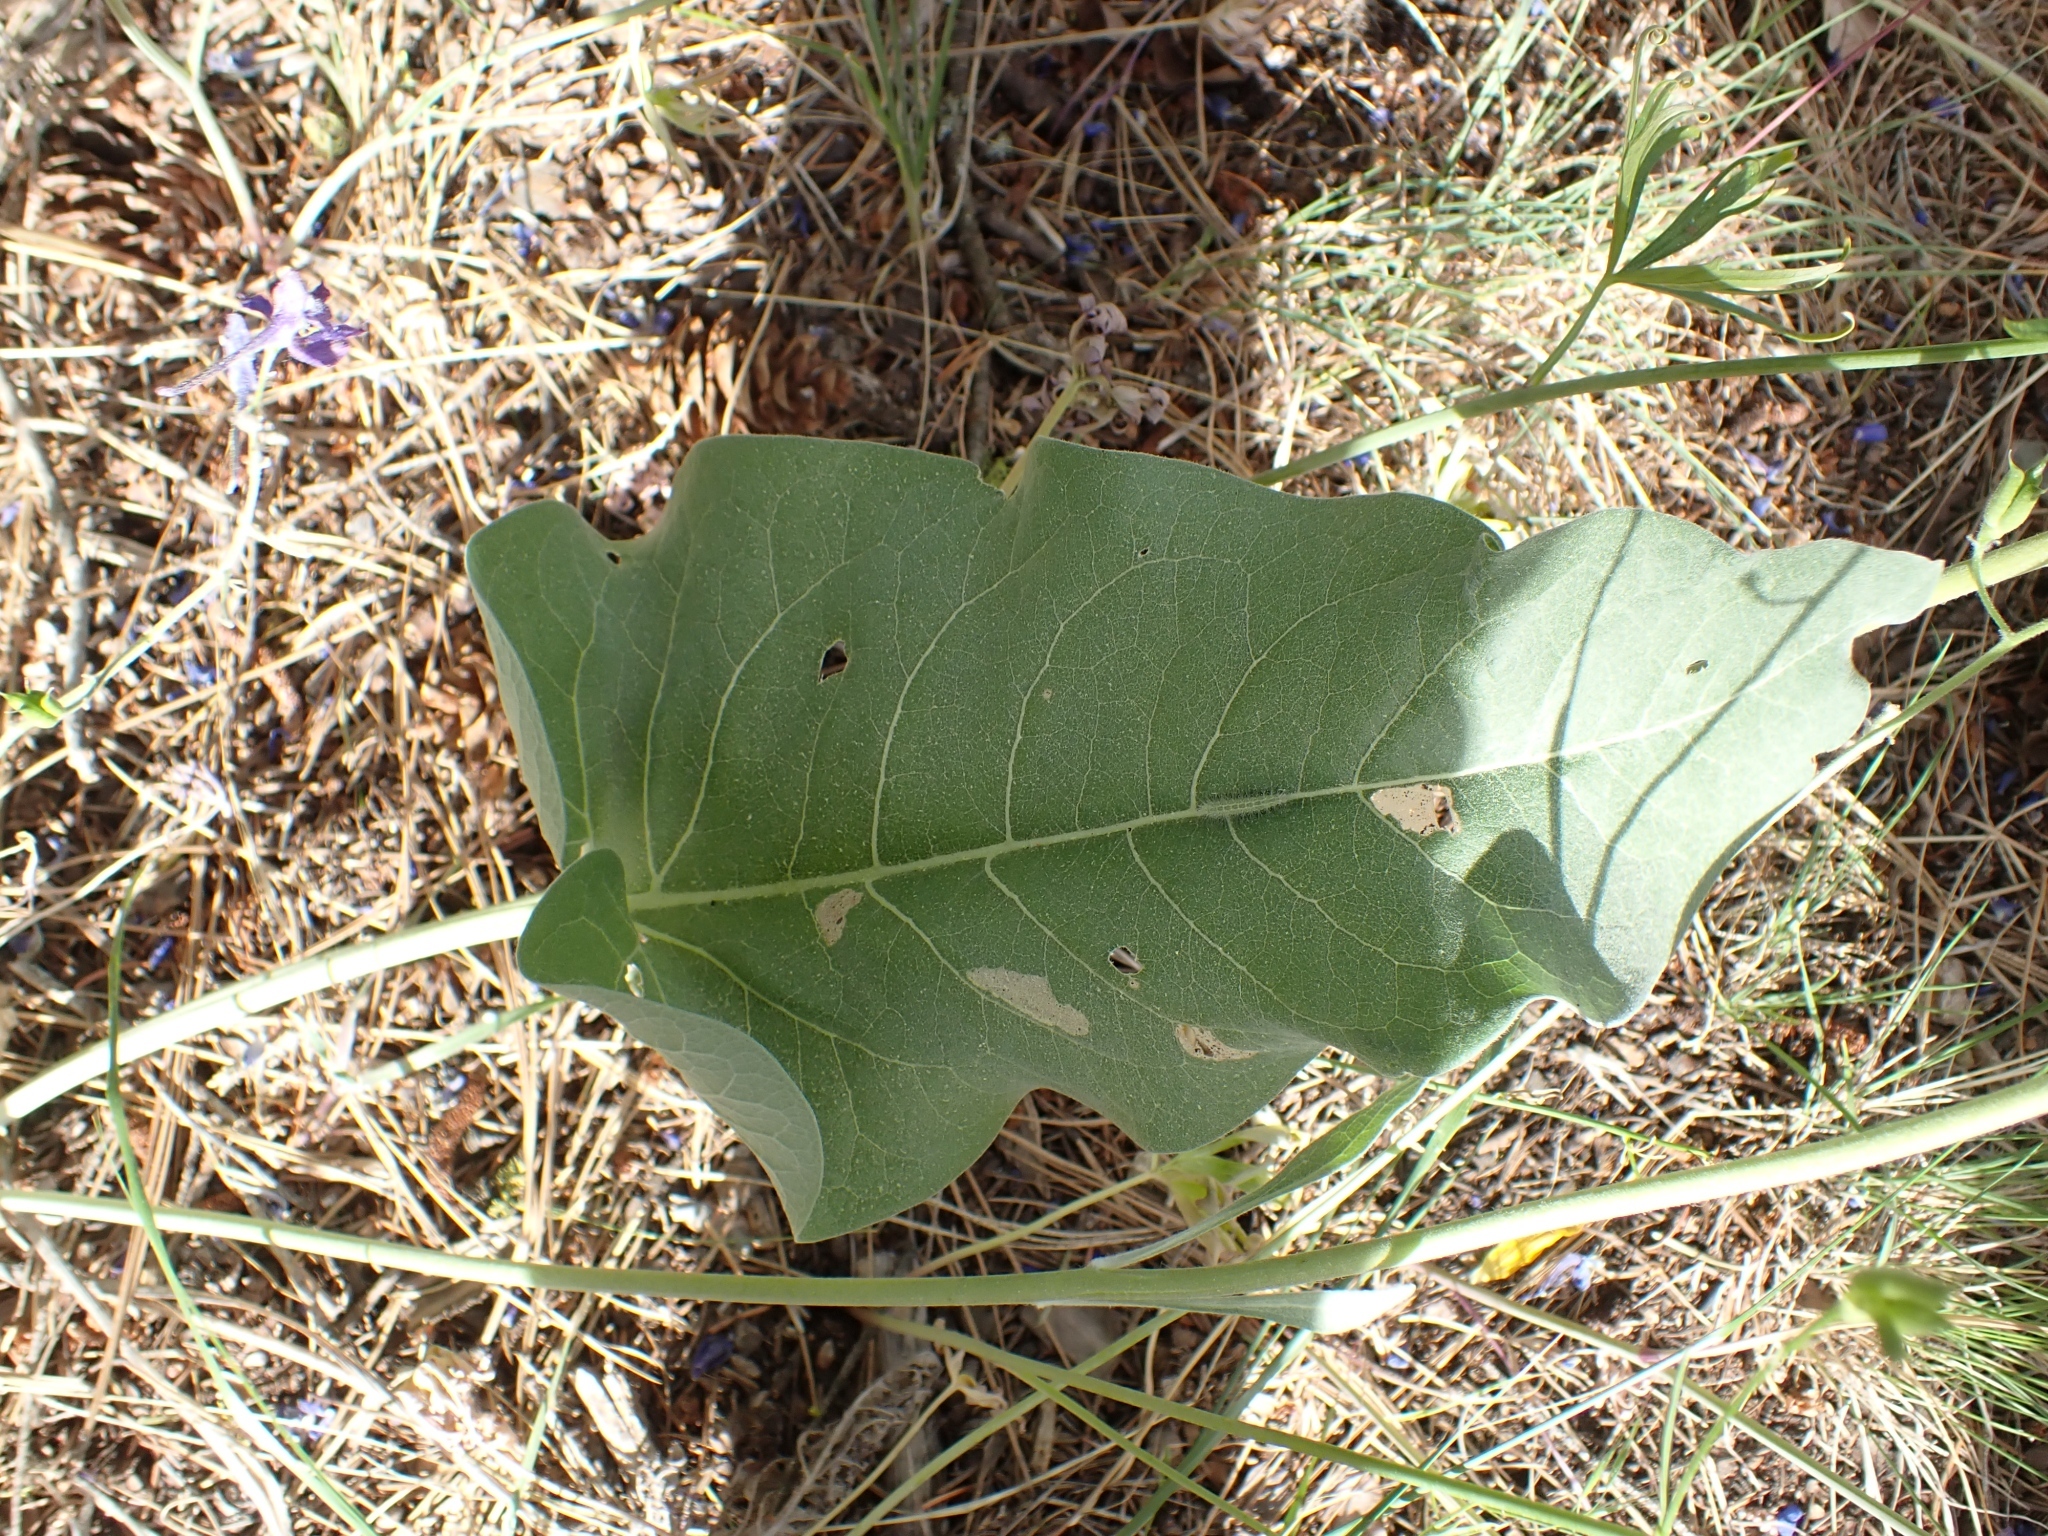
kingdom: Plantae
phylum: Tracheophyta
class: Magnoliopsida
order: Asterales
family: Asteraceae
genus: Wyethia
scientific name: Wyethia sagittata
